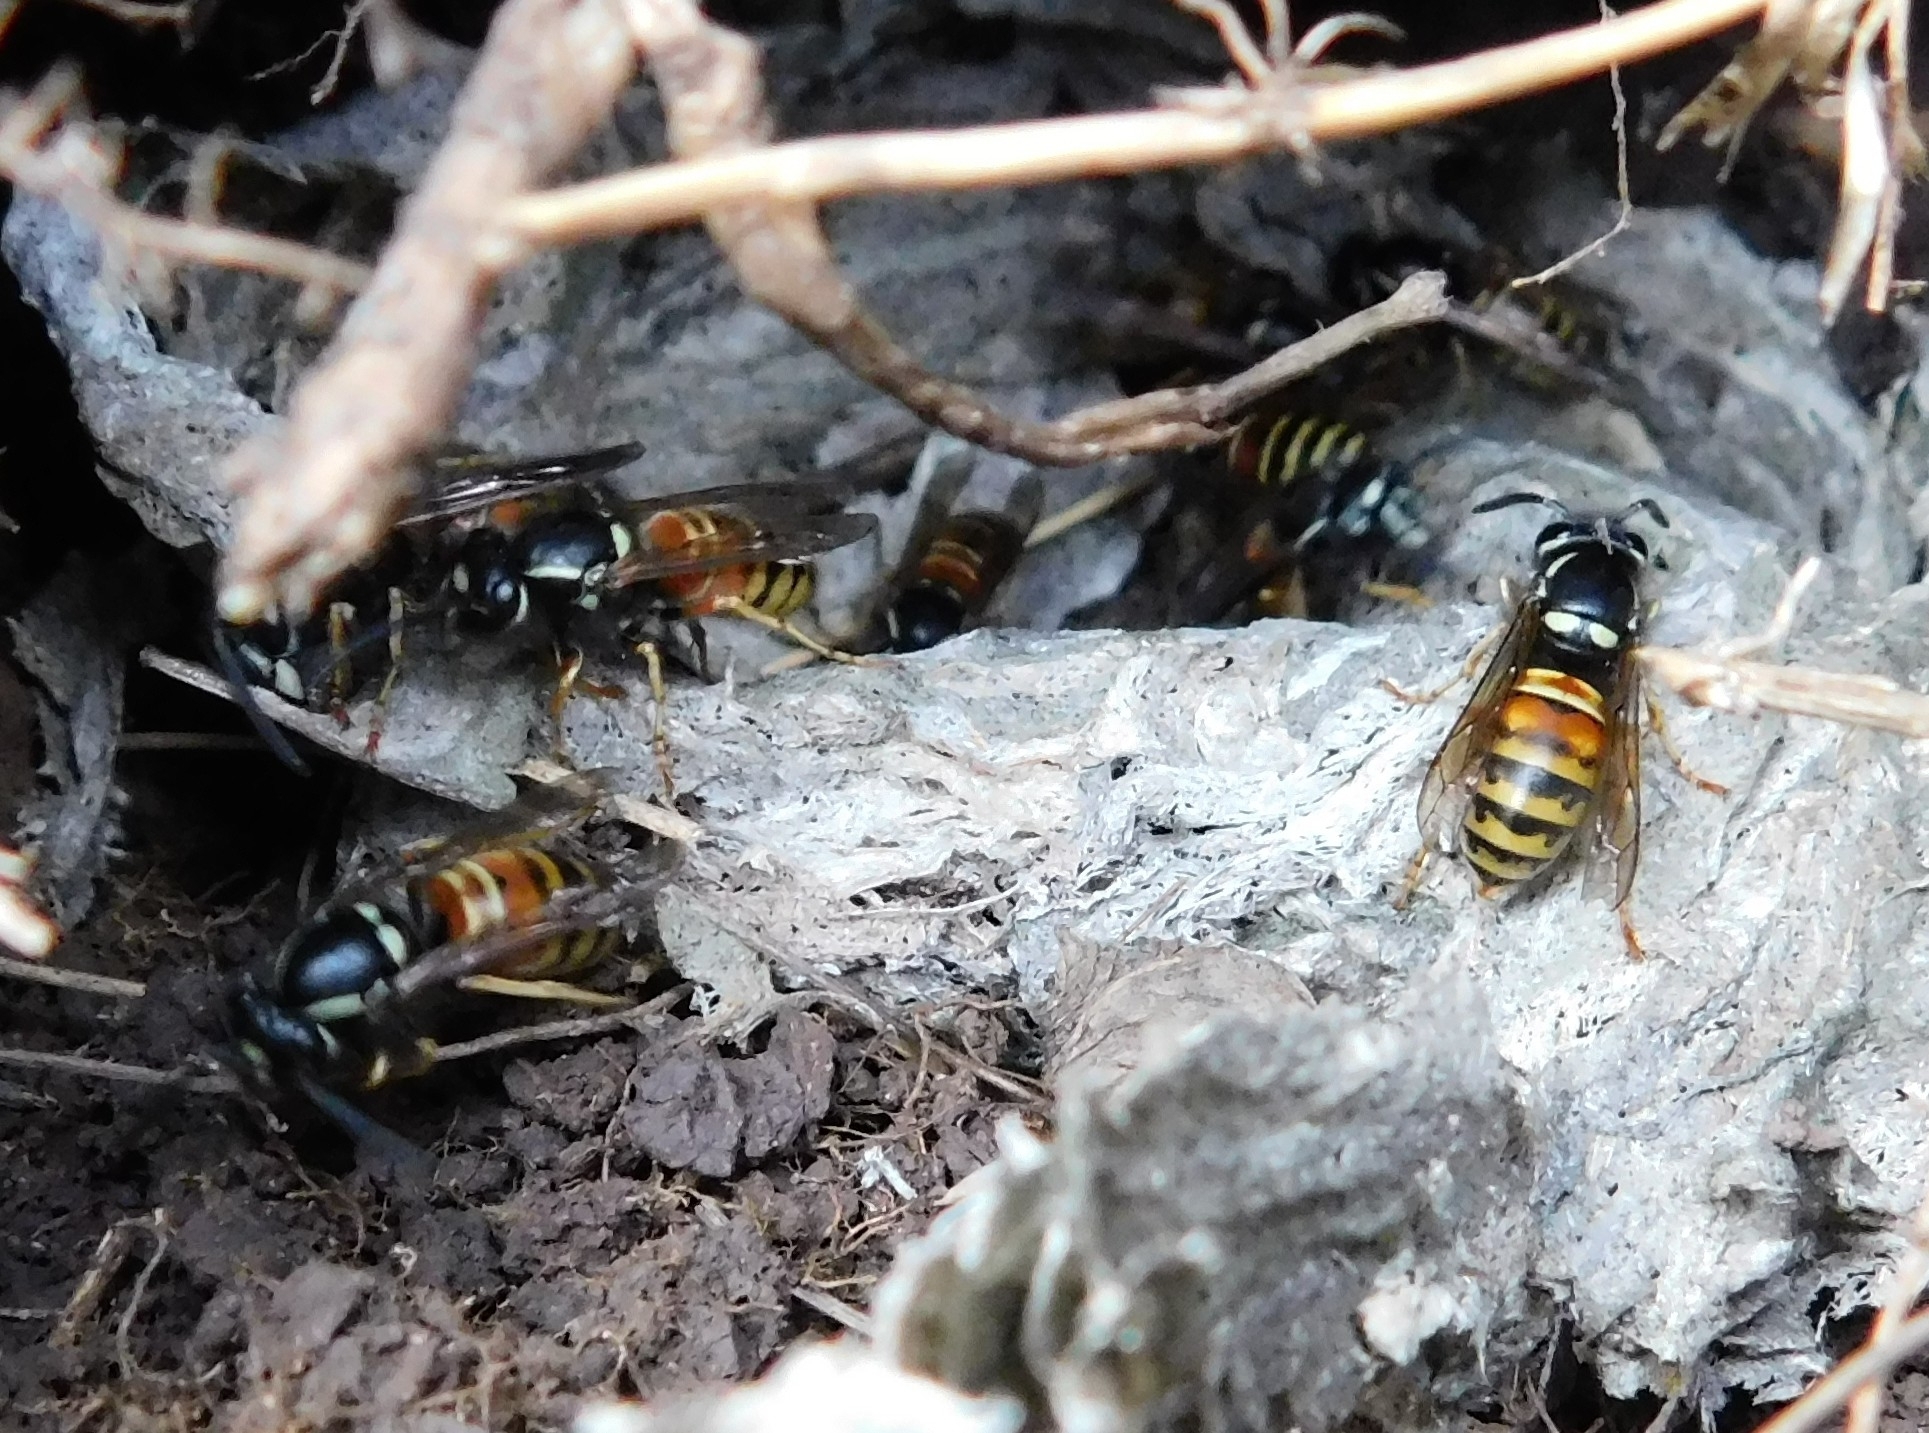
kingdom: Animalia
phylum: Arthropoda
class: Insecta
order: Hymenoptera
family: Vespidae
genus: Vespula
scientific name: Vespula rufa
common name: Red wasp
